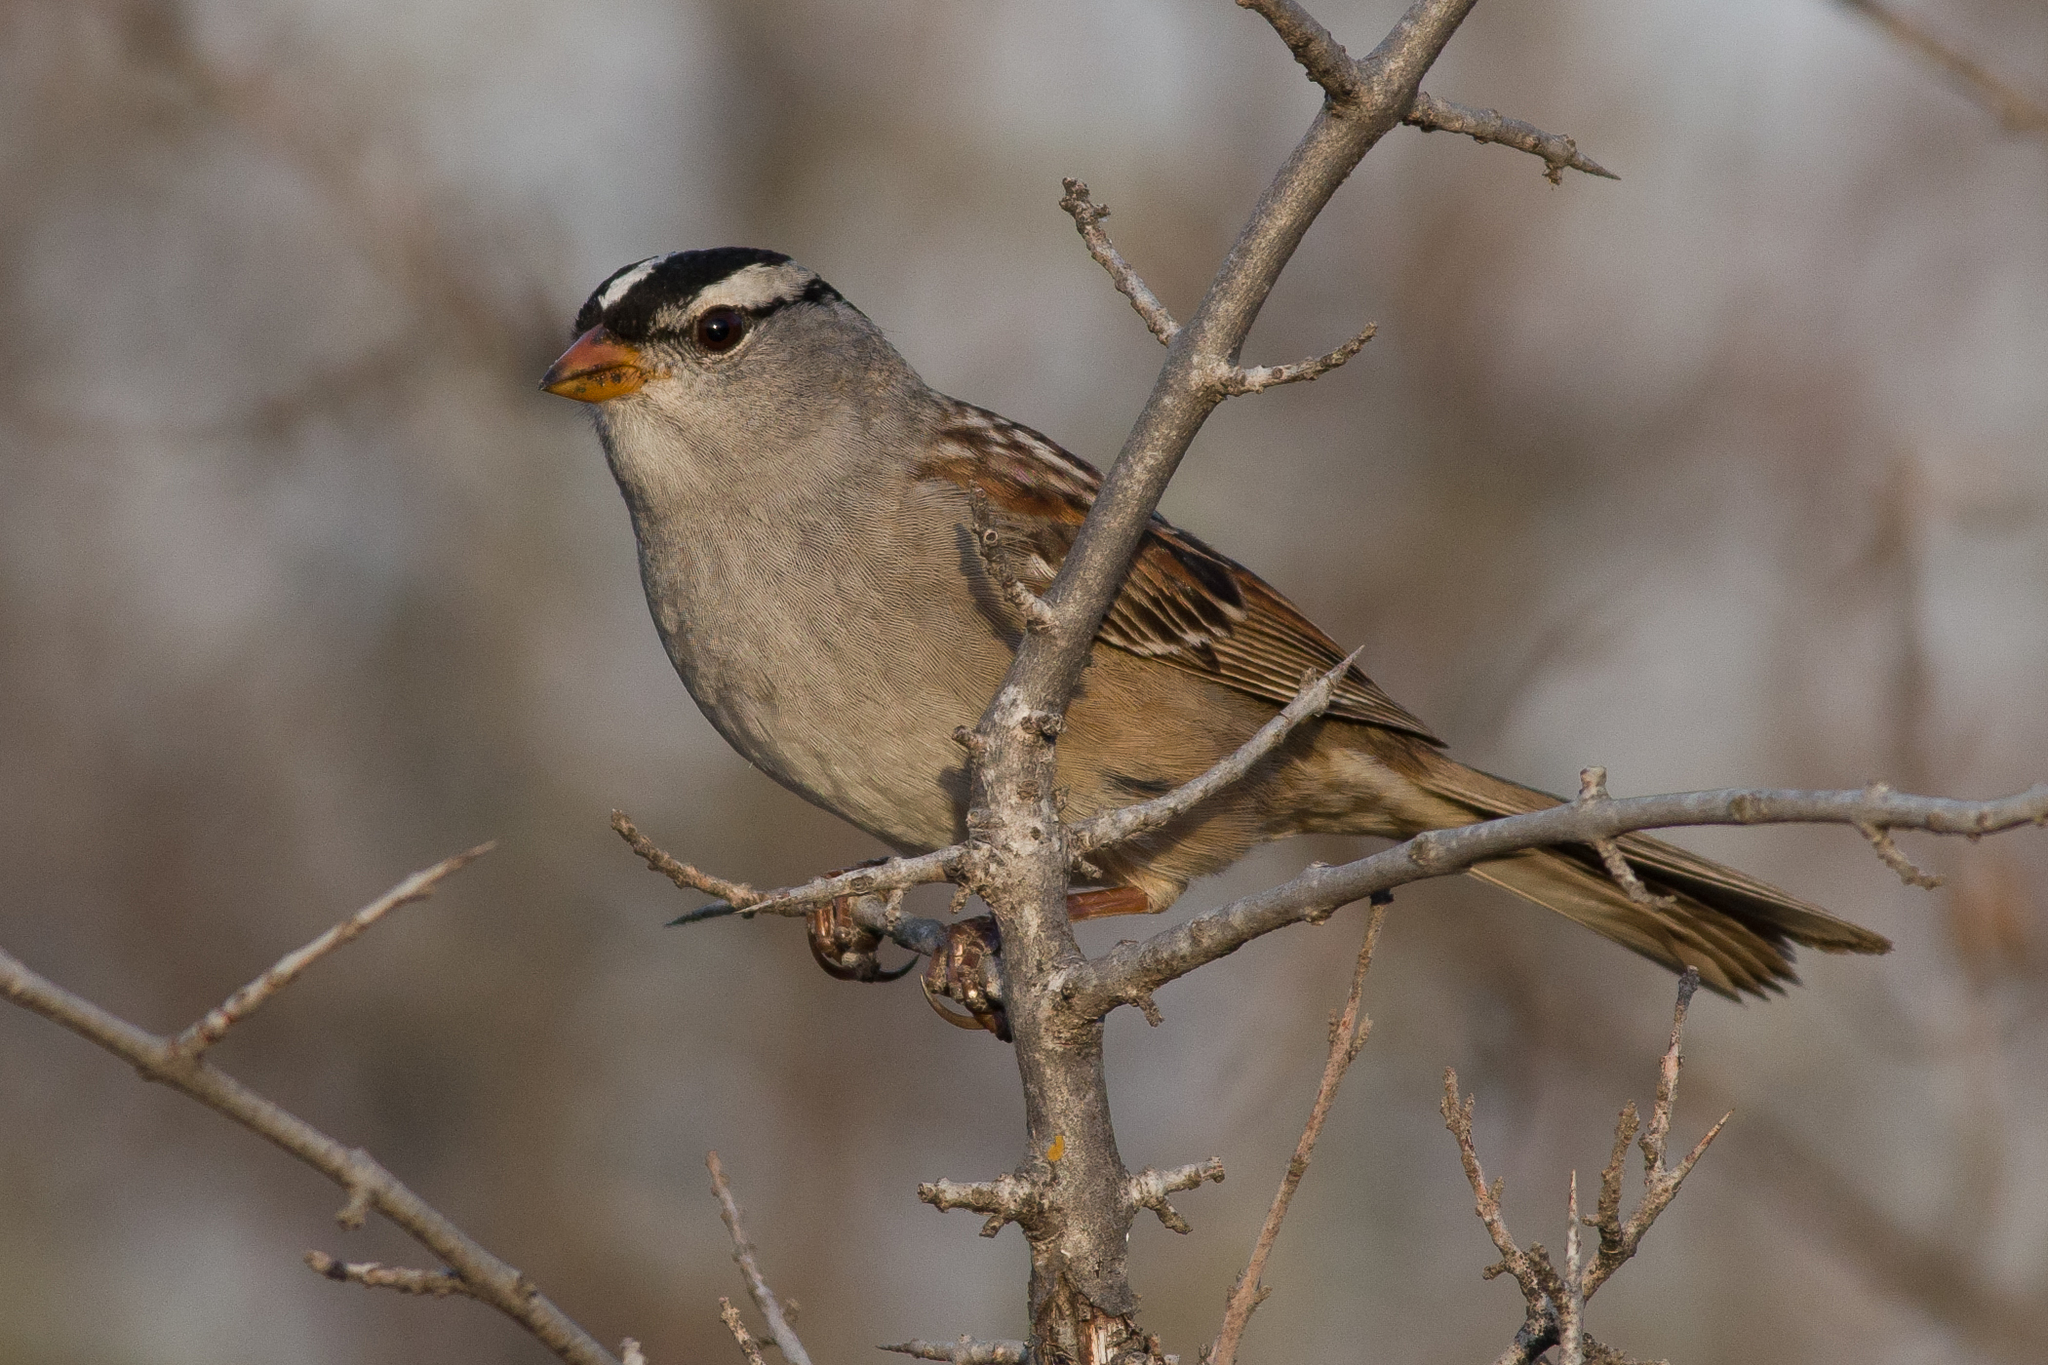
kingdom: Animalia
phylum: Chordata
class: Aves
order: Passeriformes
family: Passerellidae
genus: Zonotrichia
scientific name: Zonotrichia leucophrys
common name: White-crowned sparrow
